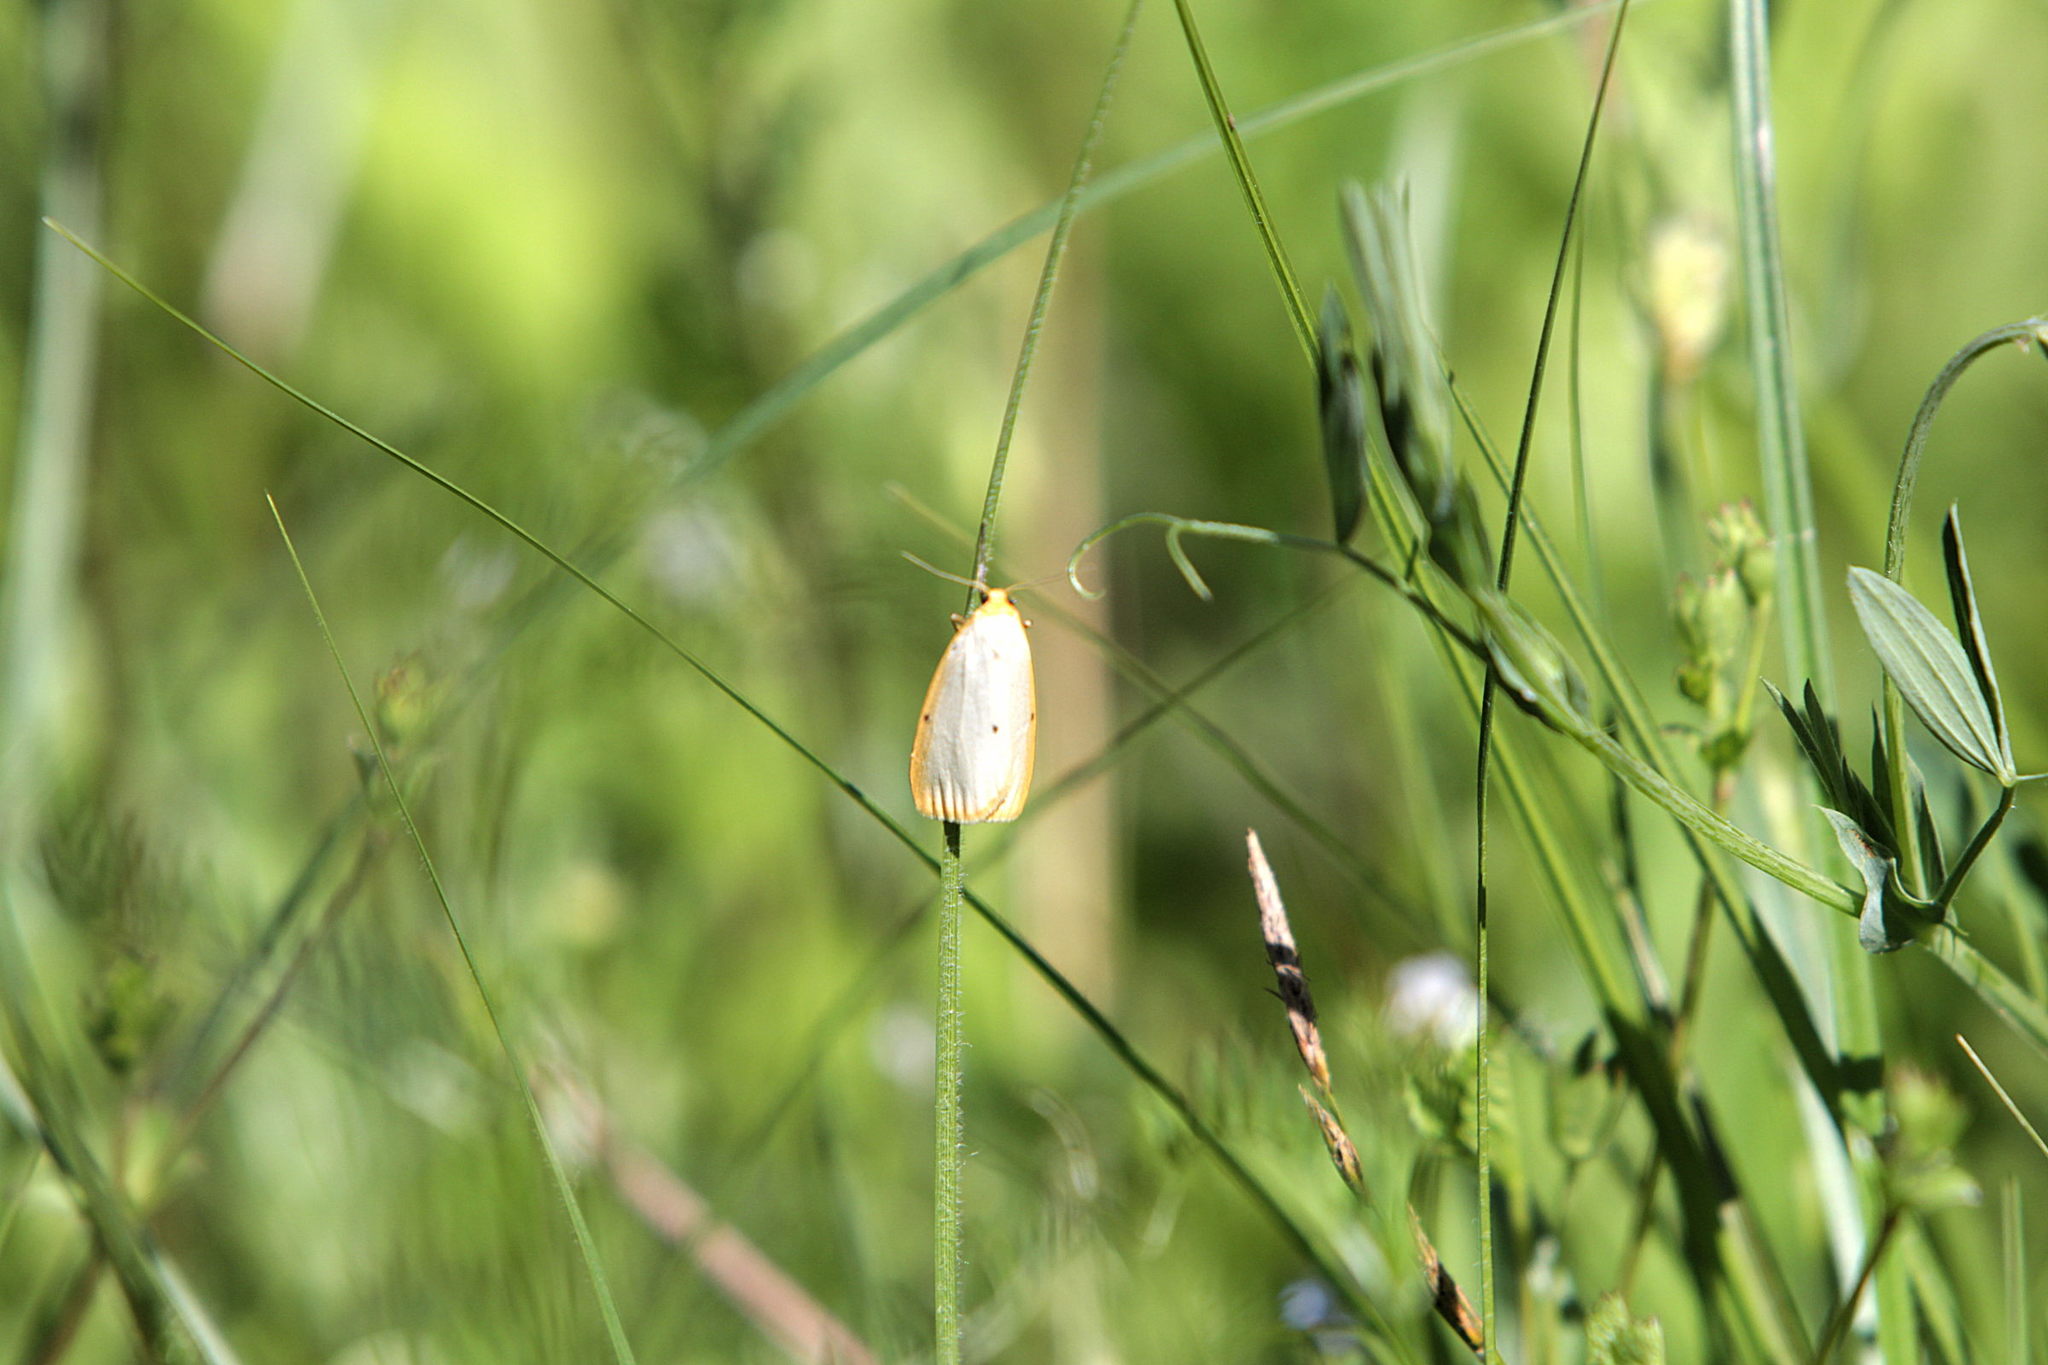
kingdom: Animalia
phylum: Arthropoda
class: Insecta
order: Lepidoptera
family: Erebidae
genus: Cybosia
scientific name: Cybosia mesomella
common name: Four-dotted footman
